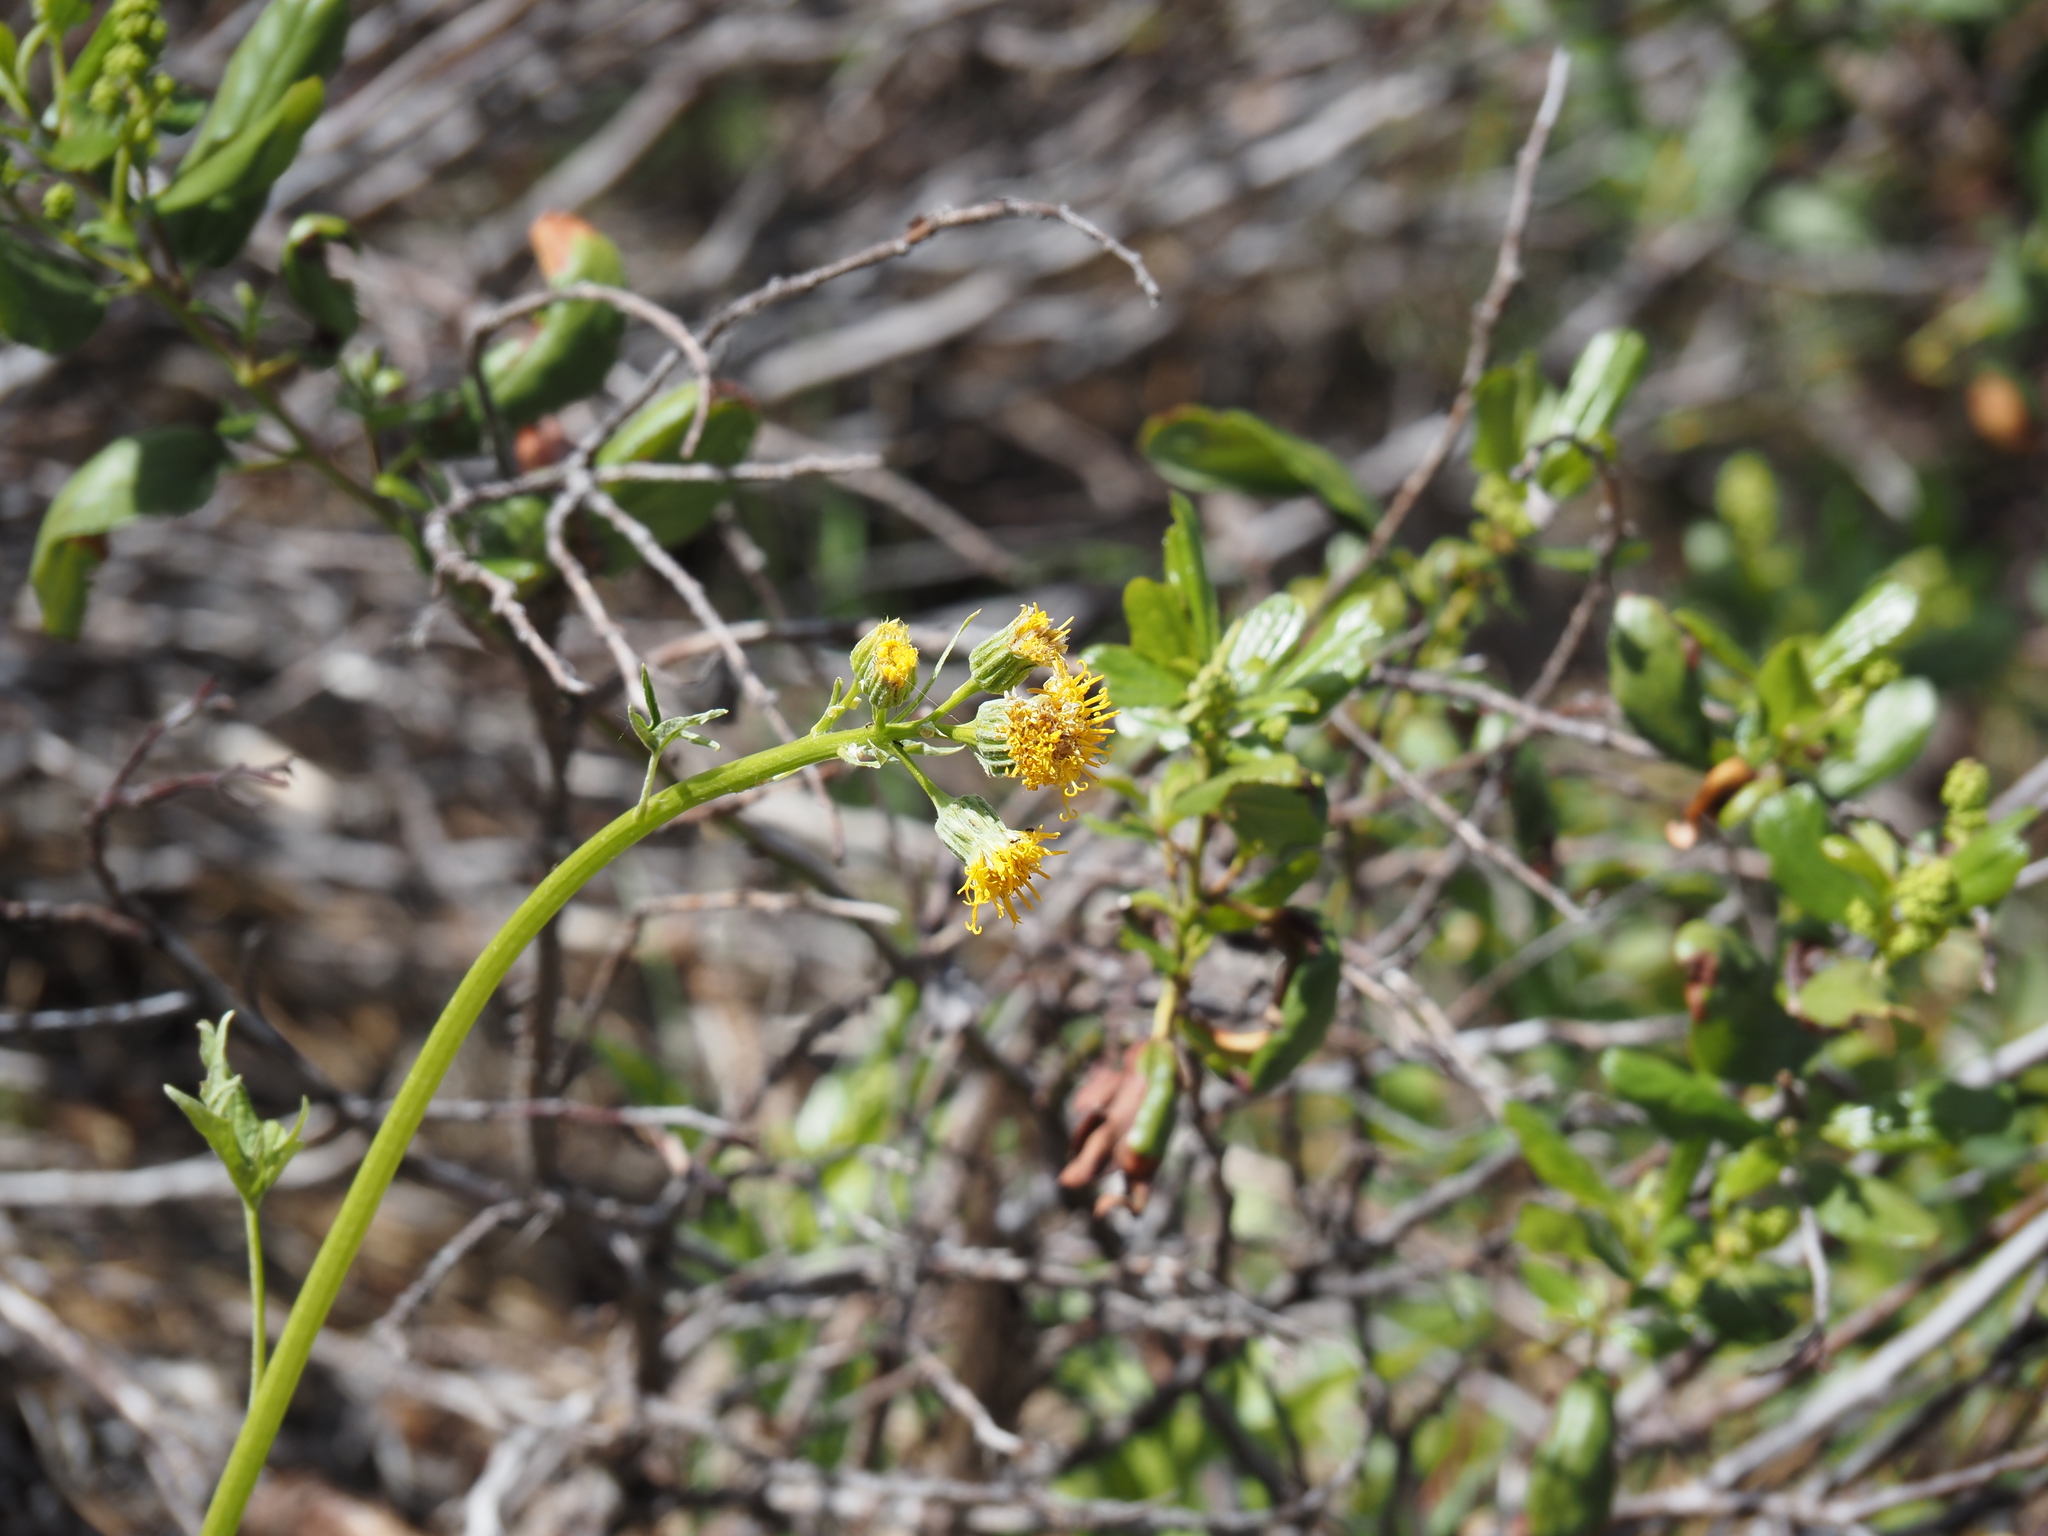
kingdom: Plantae
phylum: Tracheophyta
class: Magnoliopsida
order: Asterales
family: Asteraceae
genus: Cacaliopsis
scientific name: Cacaliopsis nardosmia
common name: Silvercrown
